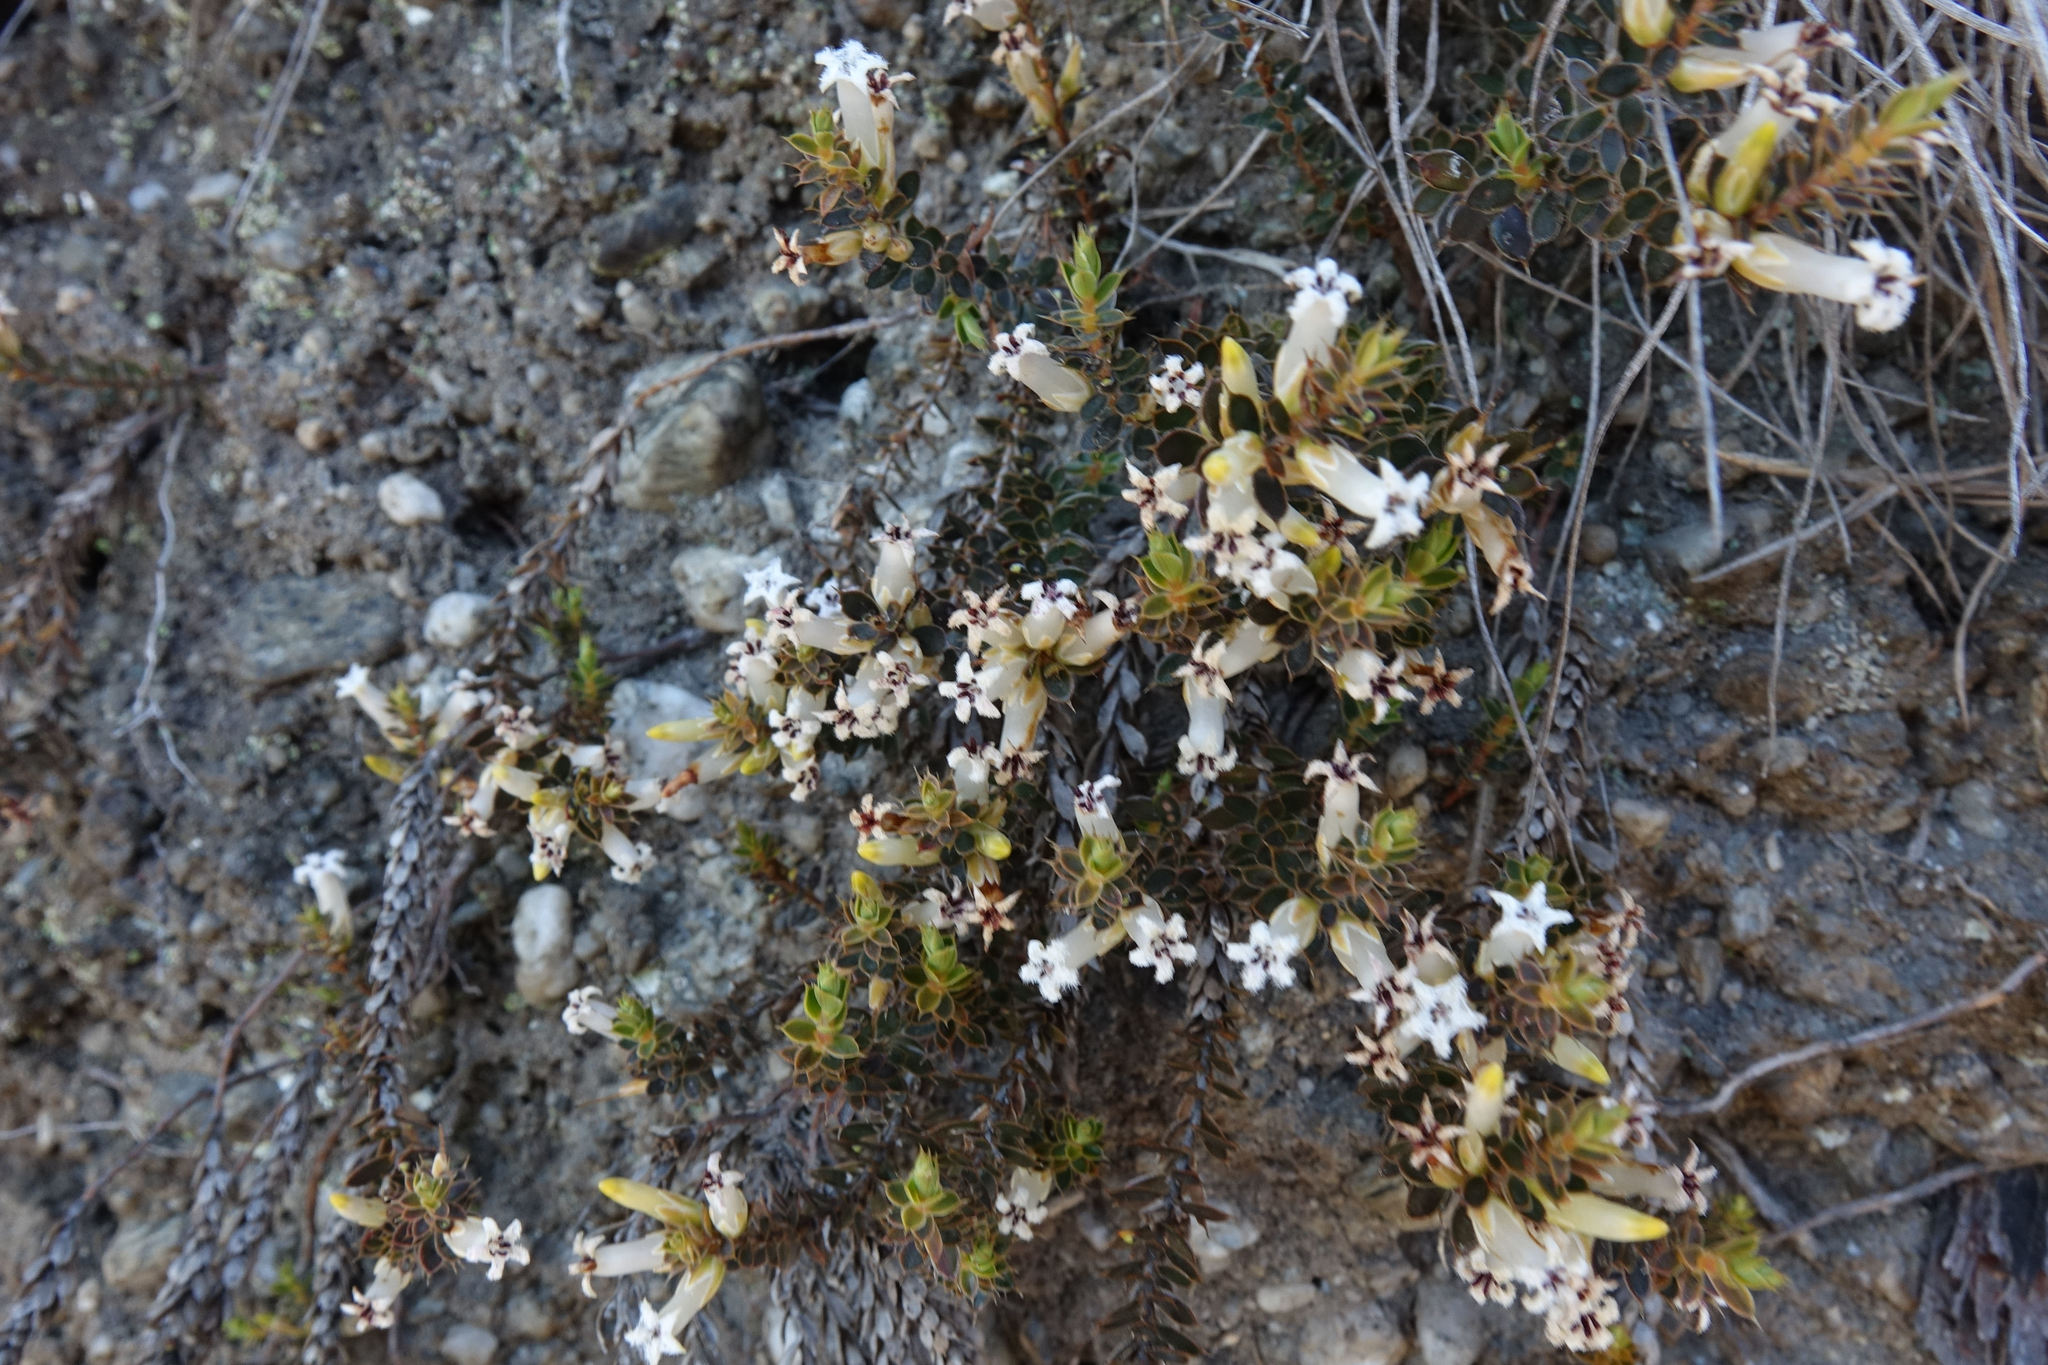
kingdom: Plantae
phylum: Tracheophyta
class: Magnoliopsida
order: Ericales
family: Ericaceae
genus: Styphelia
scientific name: Styphelia nesophila
